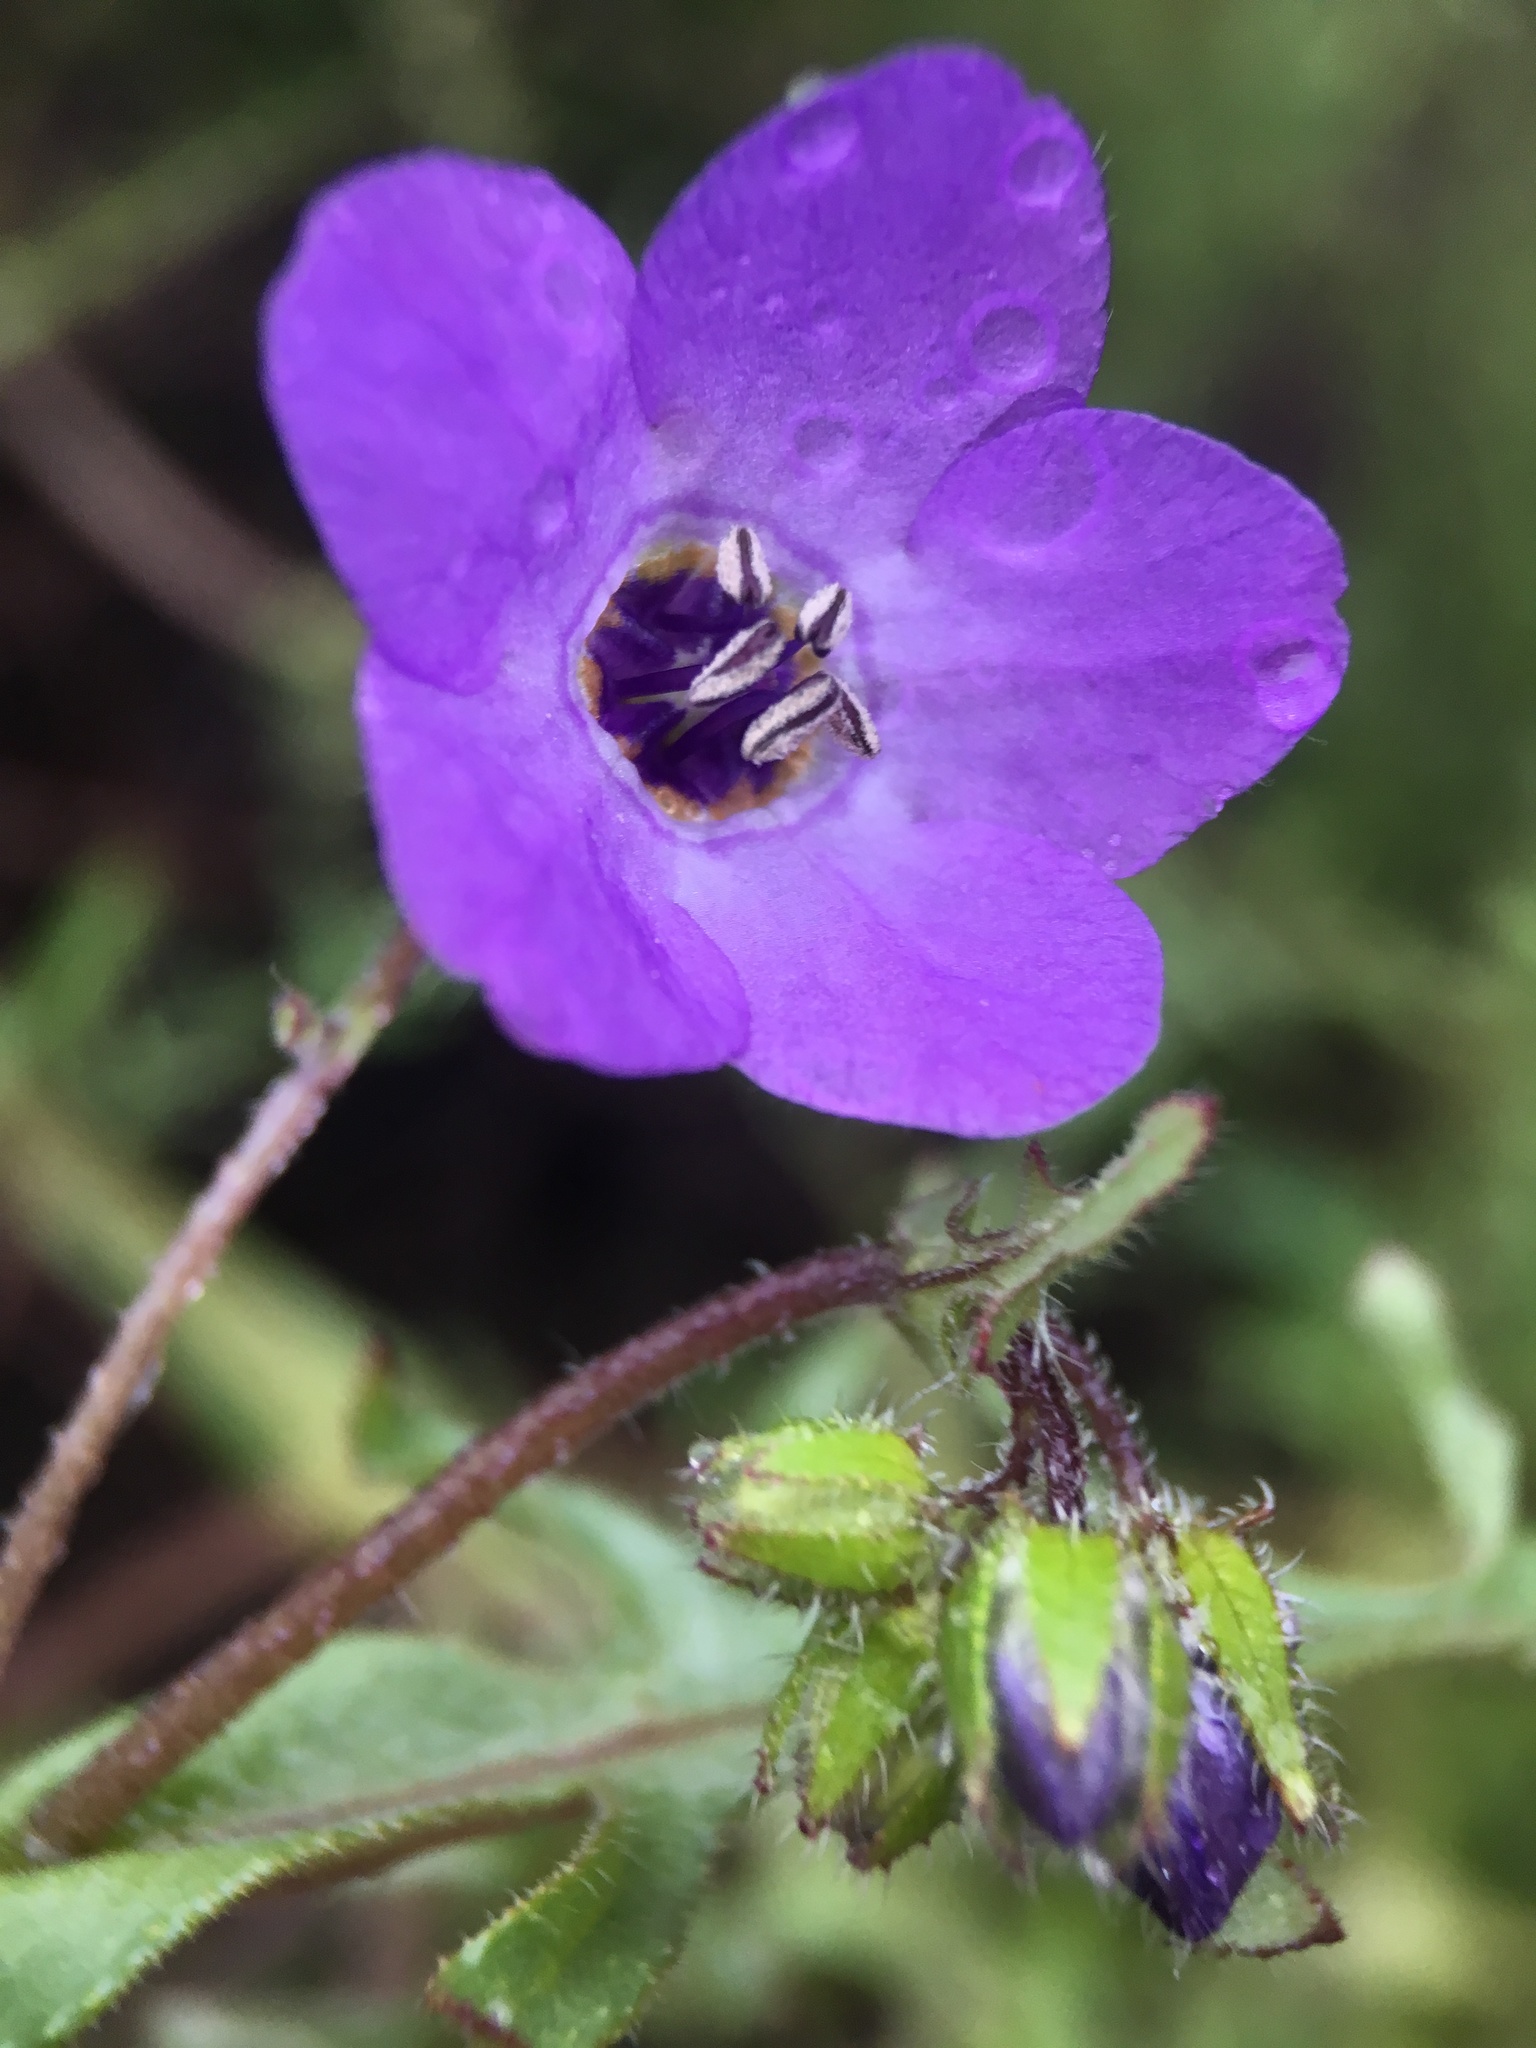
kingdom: Plantae
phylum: Tracheophyta
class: Magnoliopsida
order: Boraginales
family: Hydrophyllaceae
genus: Pholistoma
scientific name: Pholistoma auritum
